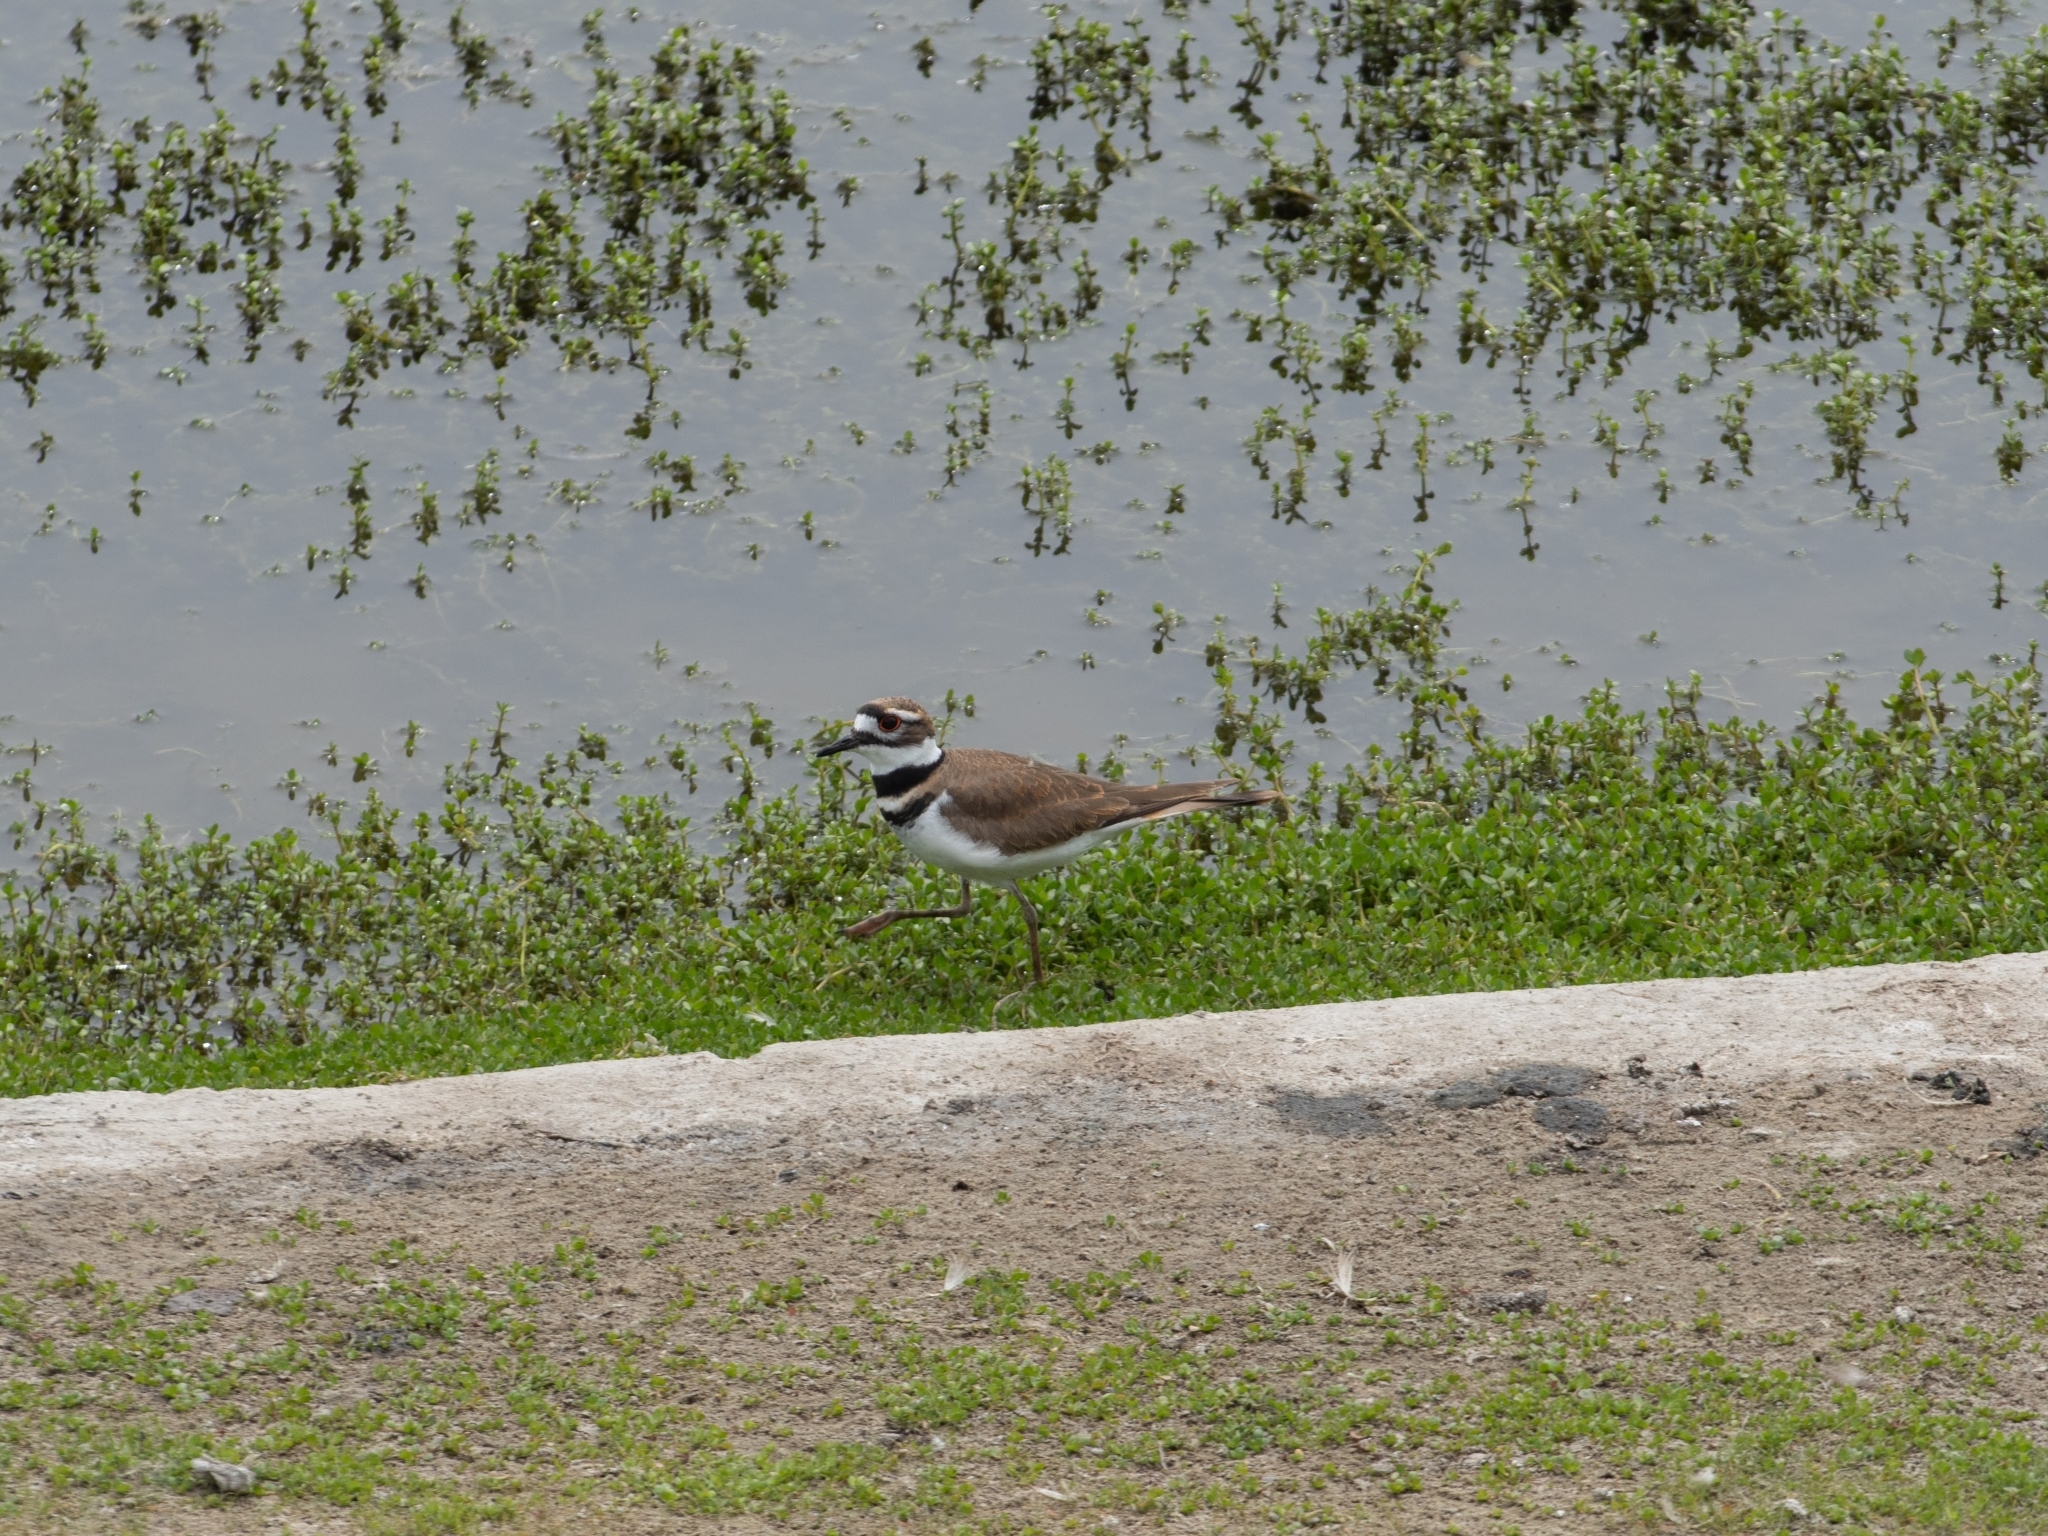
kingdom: Animalia
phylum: Chordata
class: Aves
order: Charadriiformes
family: Charadriidae
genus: Charadrius
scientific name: Charadrius vociferus
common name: Killdeer
